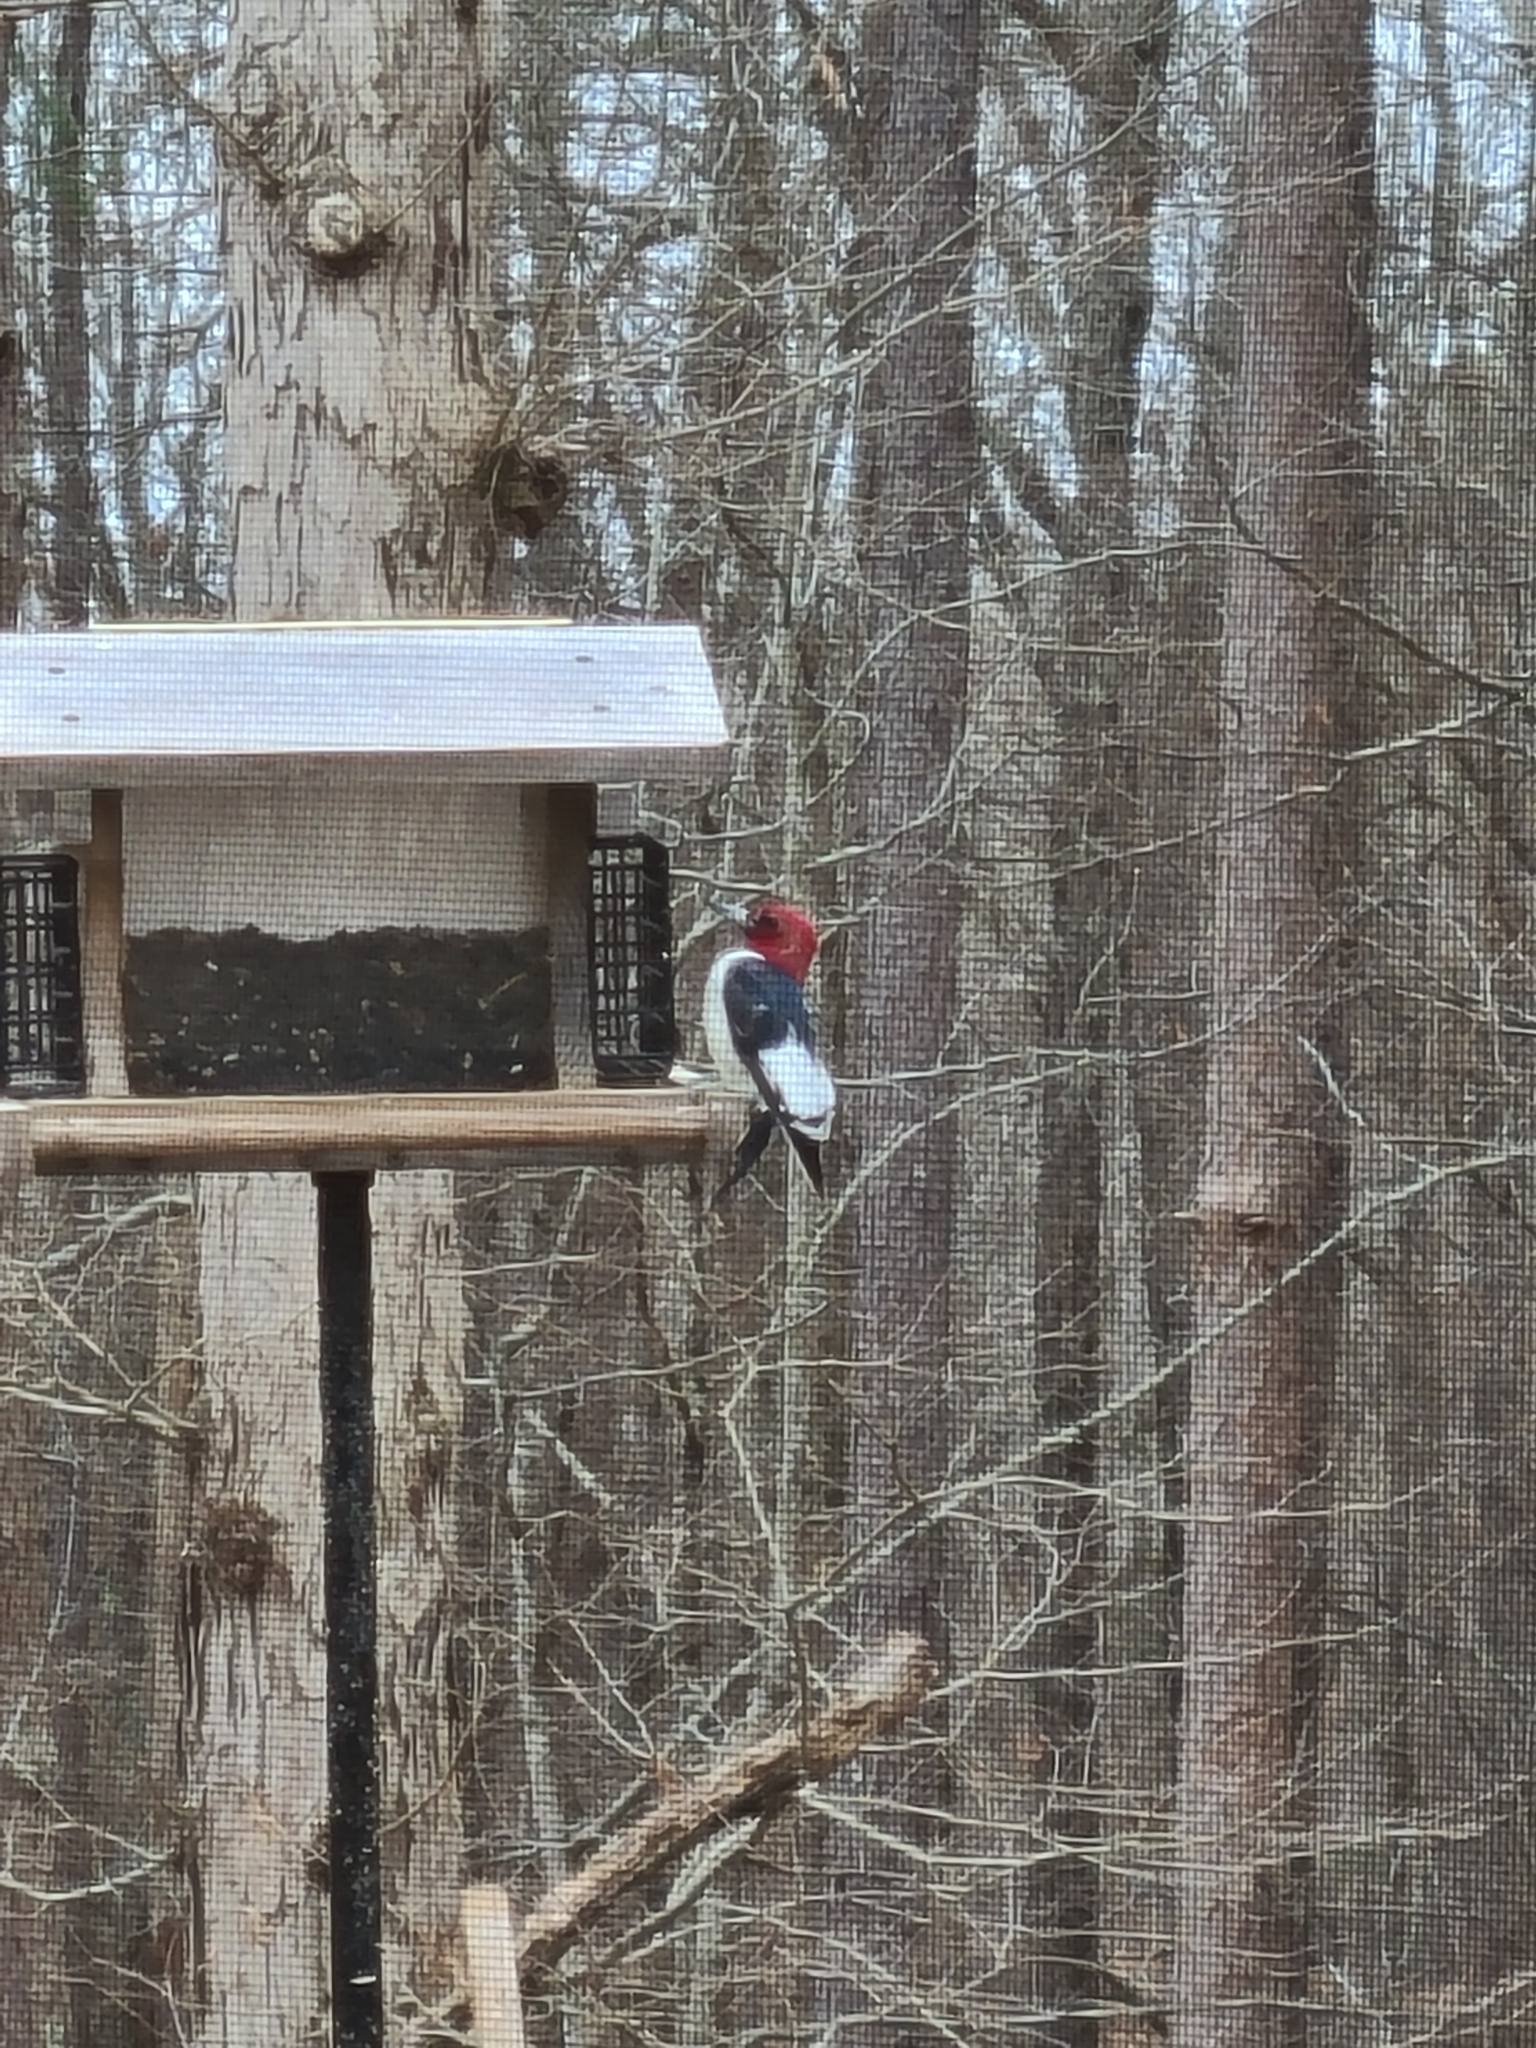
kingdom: Animalia
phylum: Chordata
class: Aves
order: Piciformes
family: Picidae
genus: Melanerpes
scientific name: Melanerpes erythrocephalus
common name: Red-headed woodpecker
